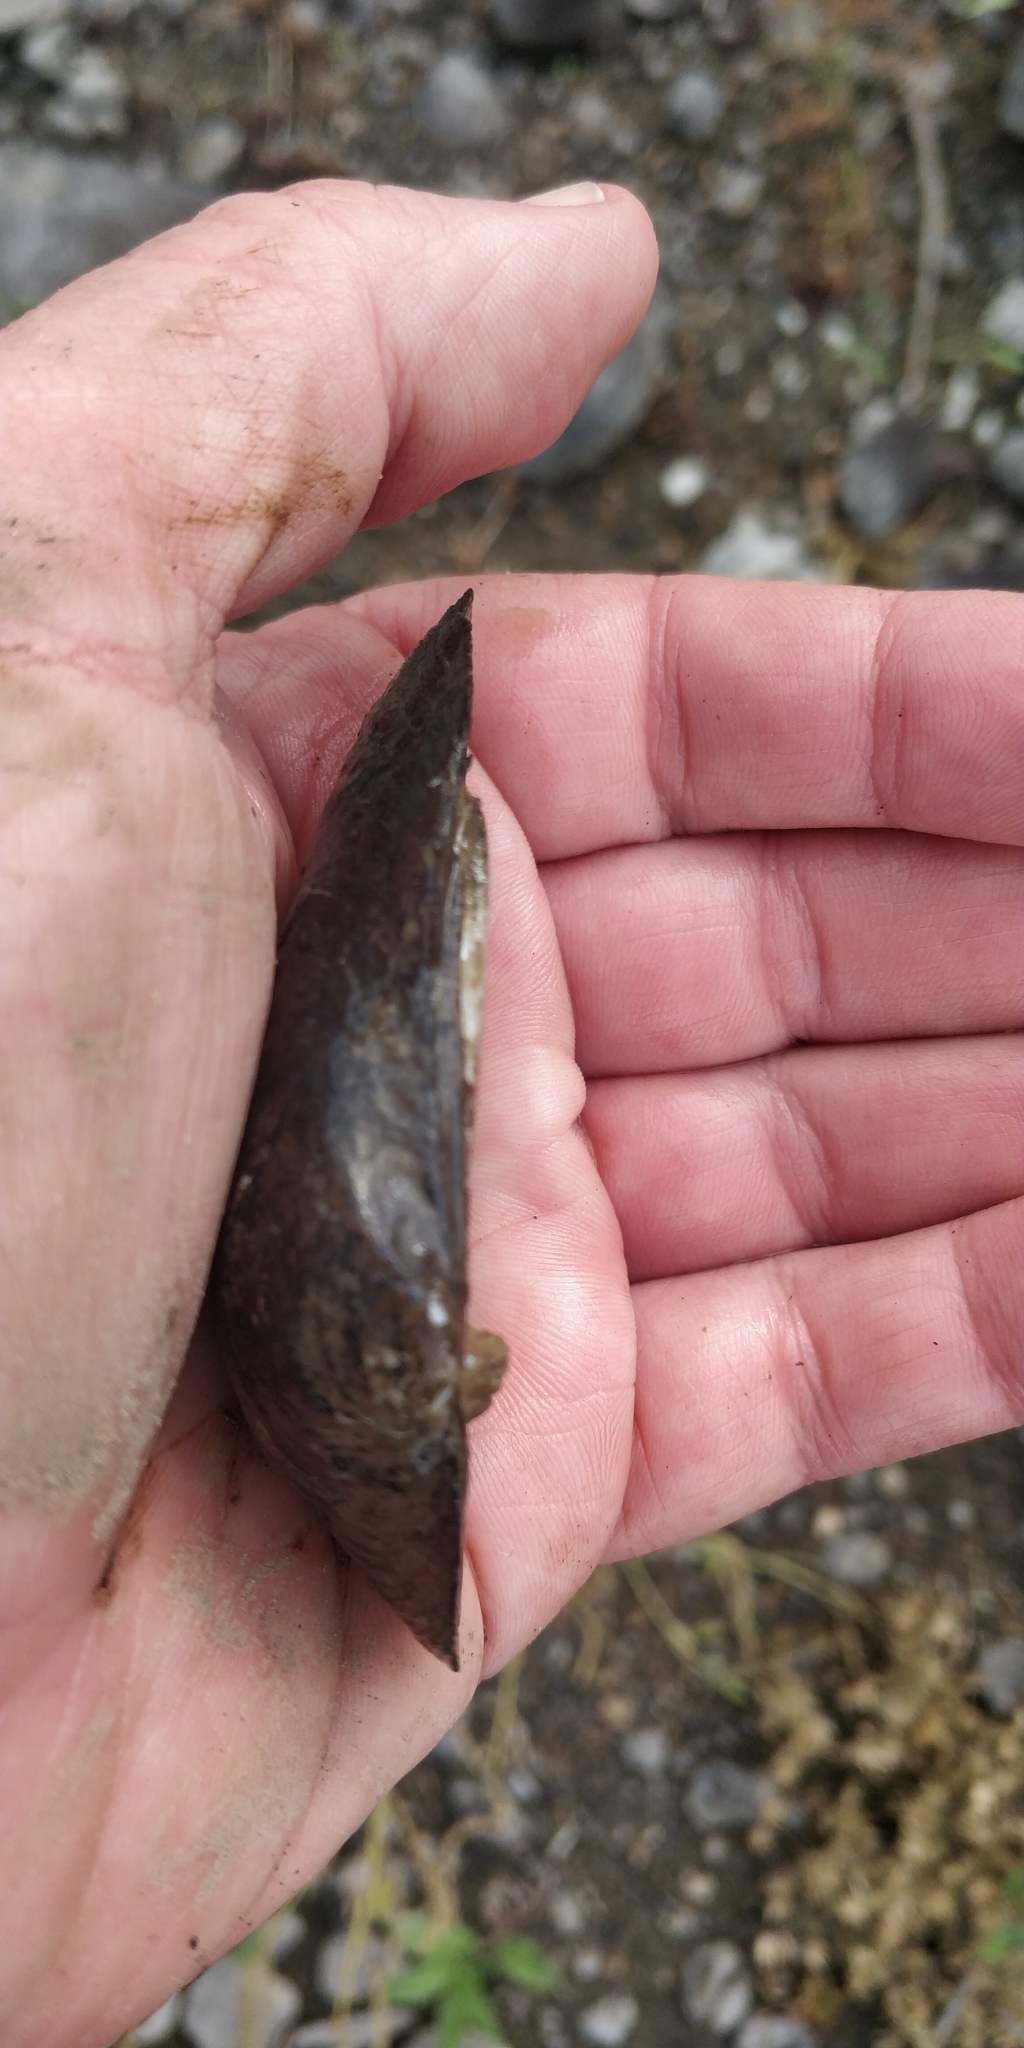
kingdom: Animalia
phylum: Mollusca
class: Bivalvia
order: Unionida
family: Unionidae
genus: Fusconaia
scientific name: Fusconaia flava
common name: Wabash pigtoe
